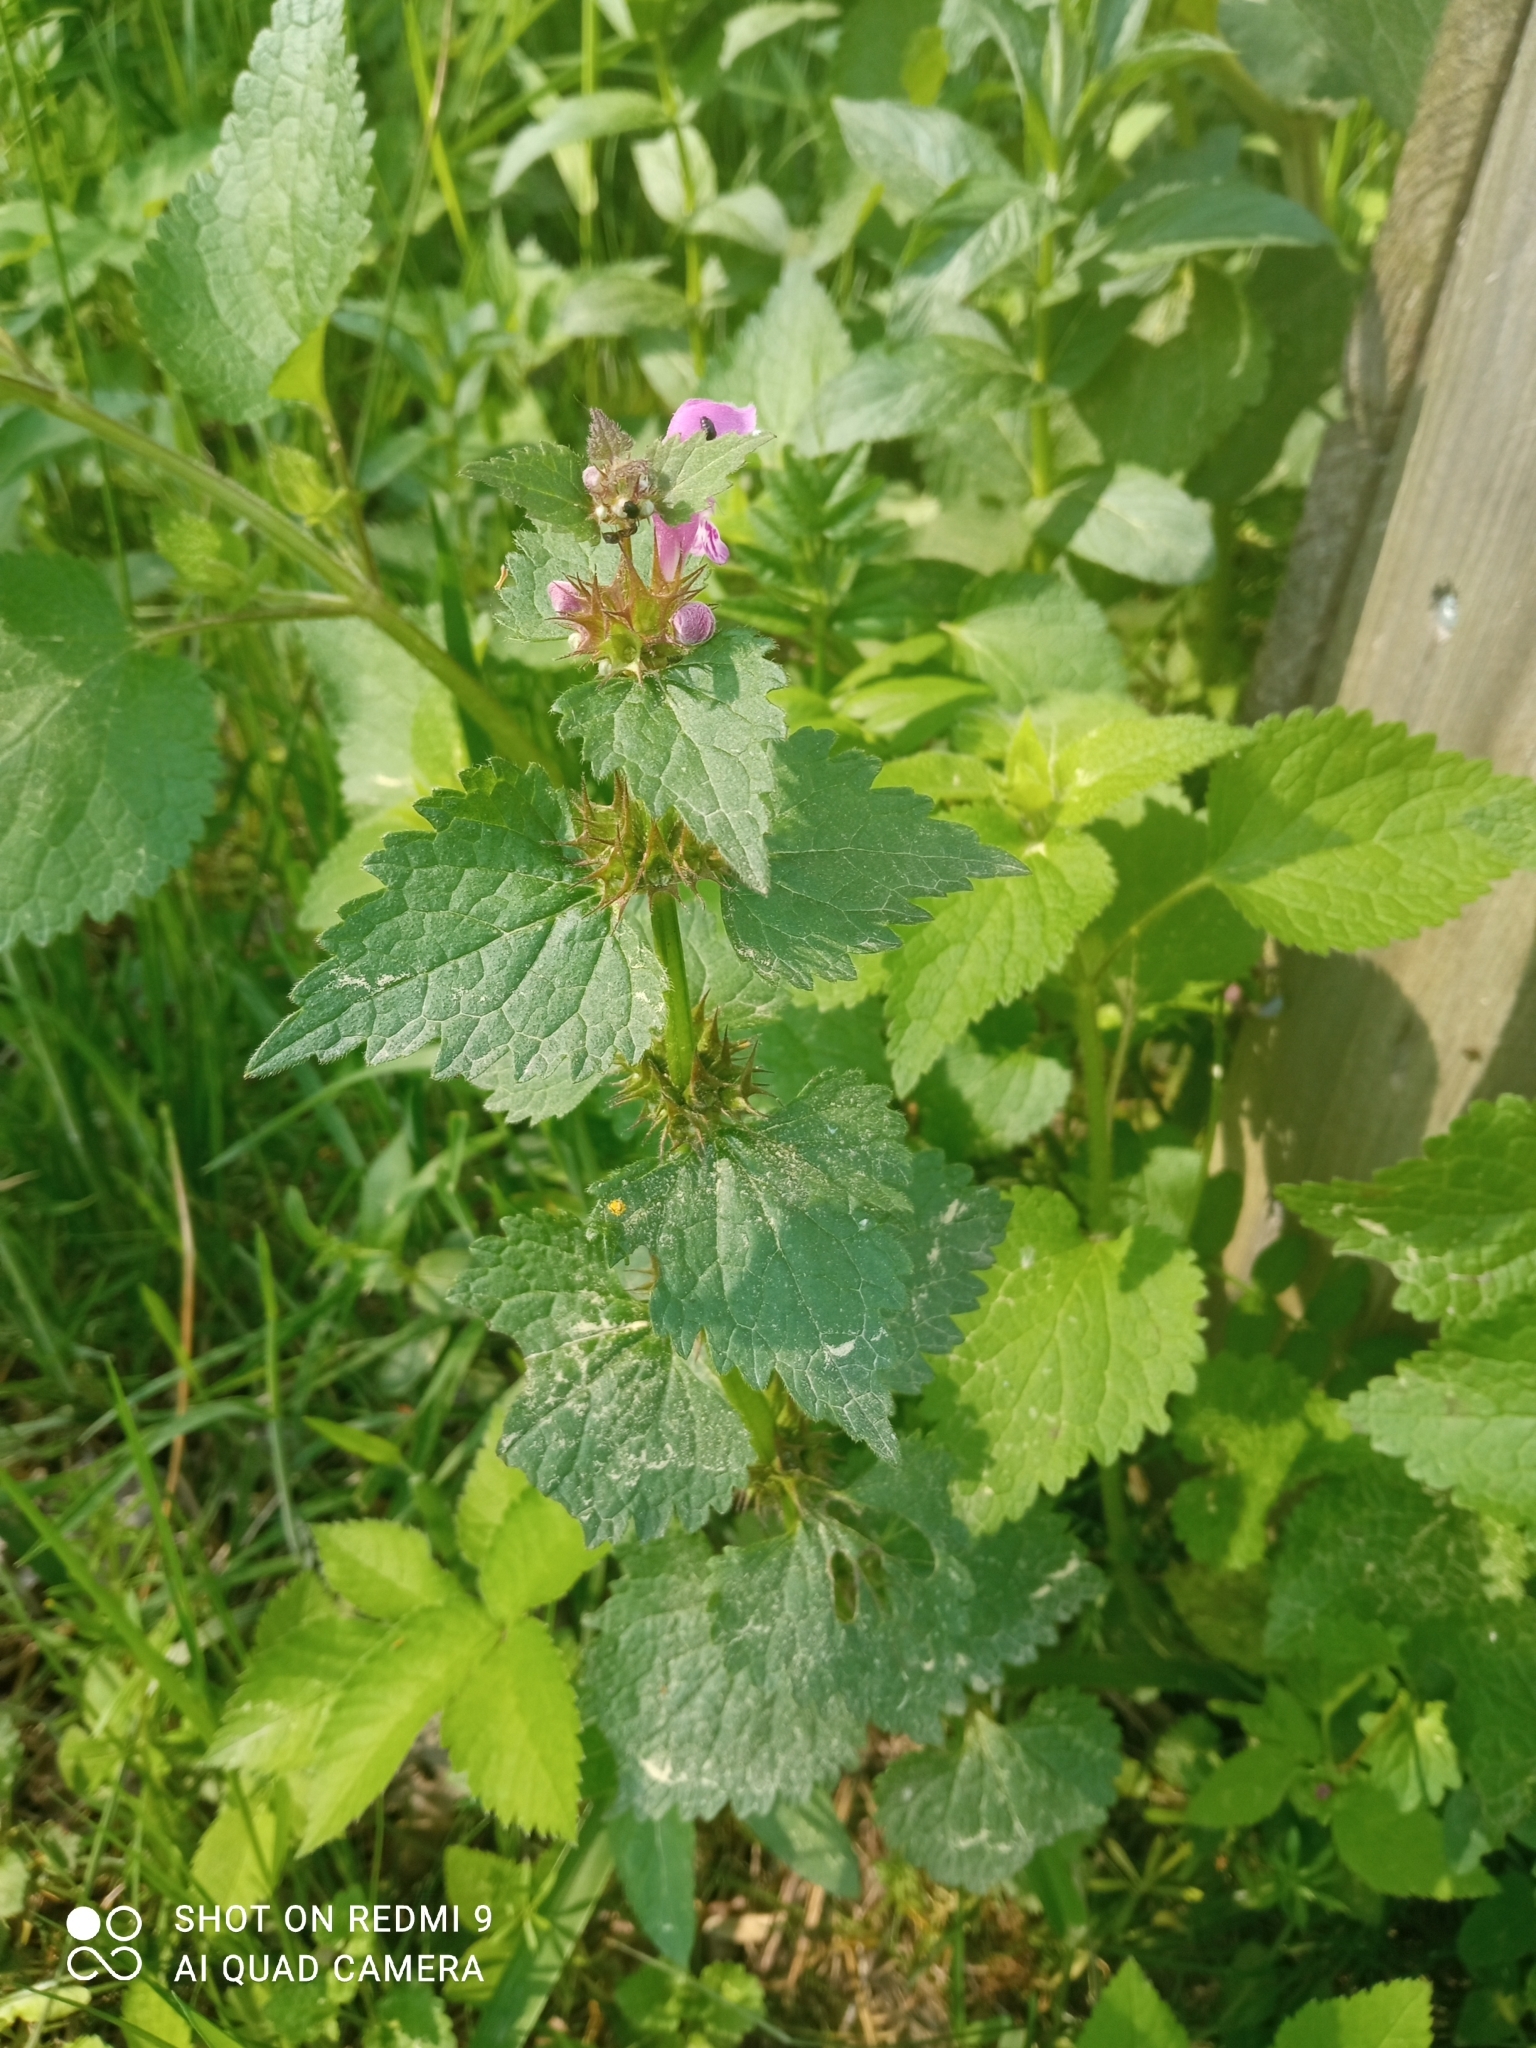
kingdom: Plantae
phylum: Tracheophyta
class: Magnoliopsida
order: Lamiales
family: Lamiaceae
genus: Lamium
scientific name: Lamium maculatum
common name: Spotted dead-nettle
